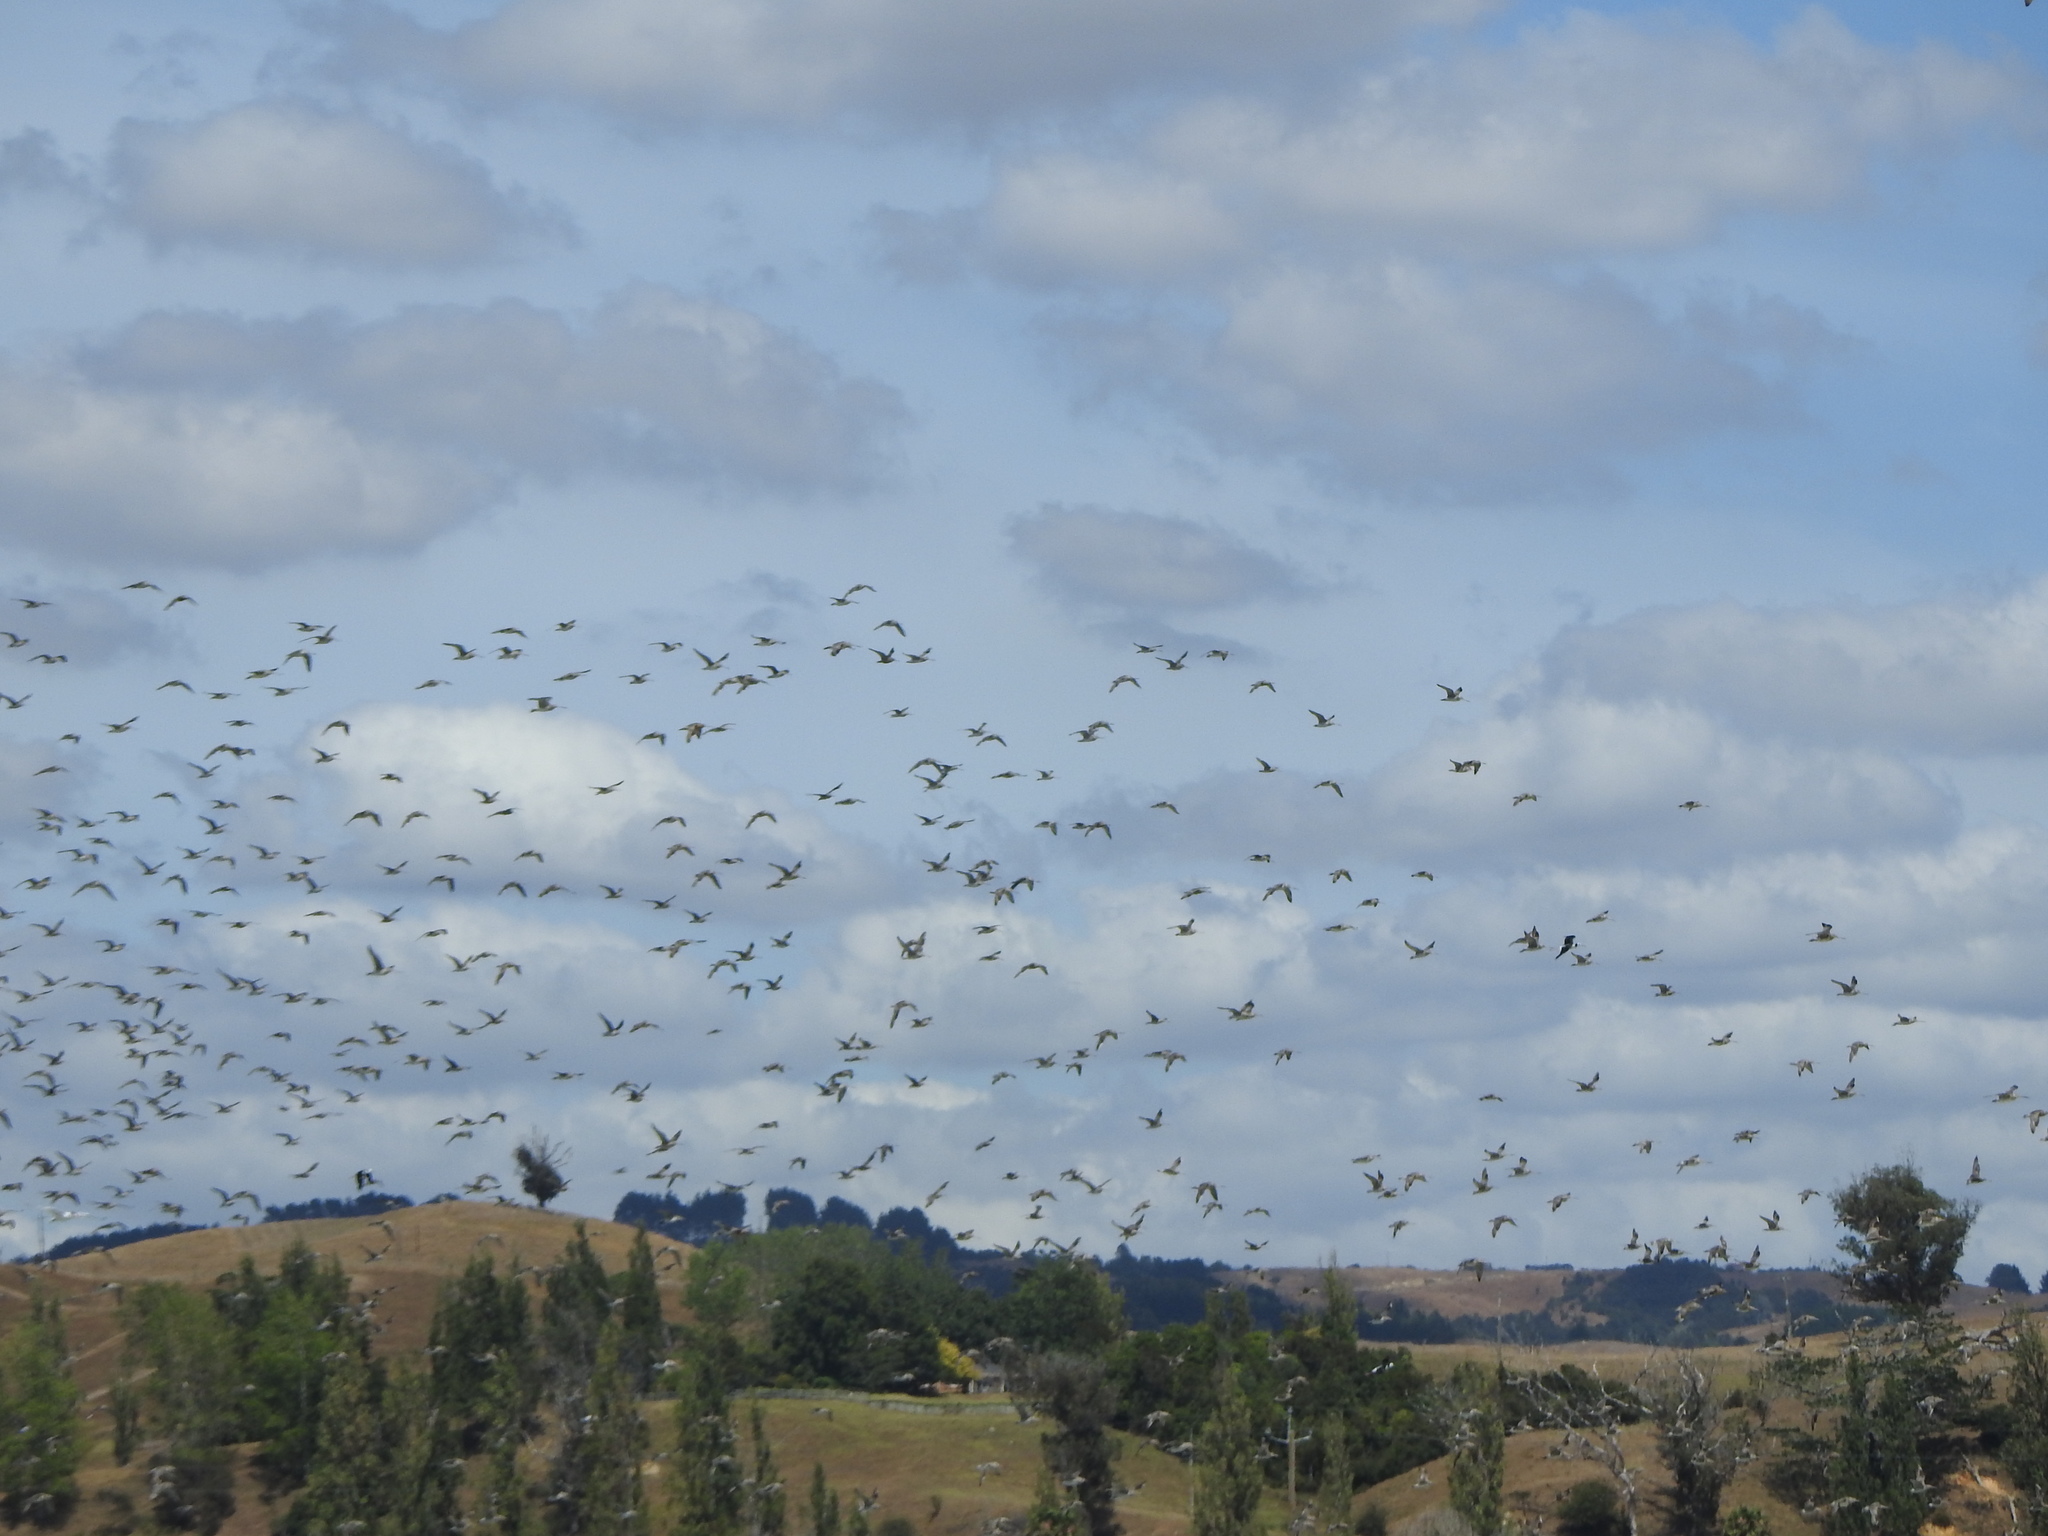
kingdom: Animalia
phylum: Chordata
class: Aves
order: Charadriiformes
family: Scolopacidae
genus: Limosa
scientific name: Limosa lapponica
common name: Bar-tailed godwit
